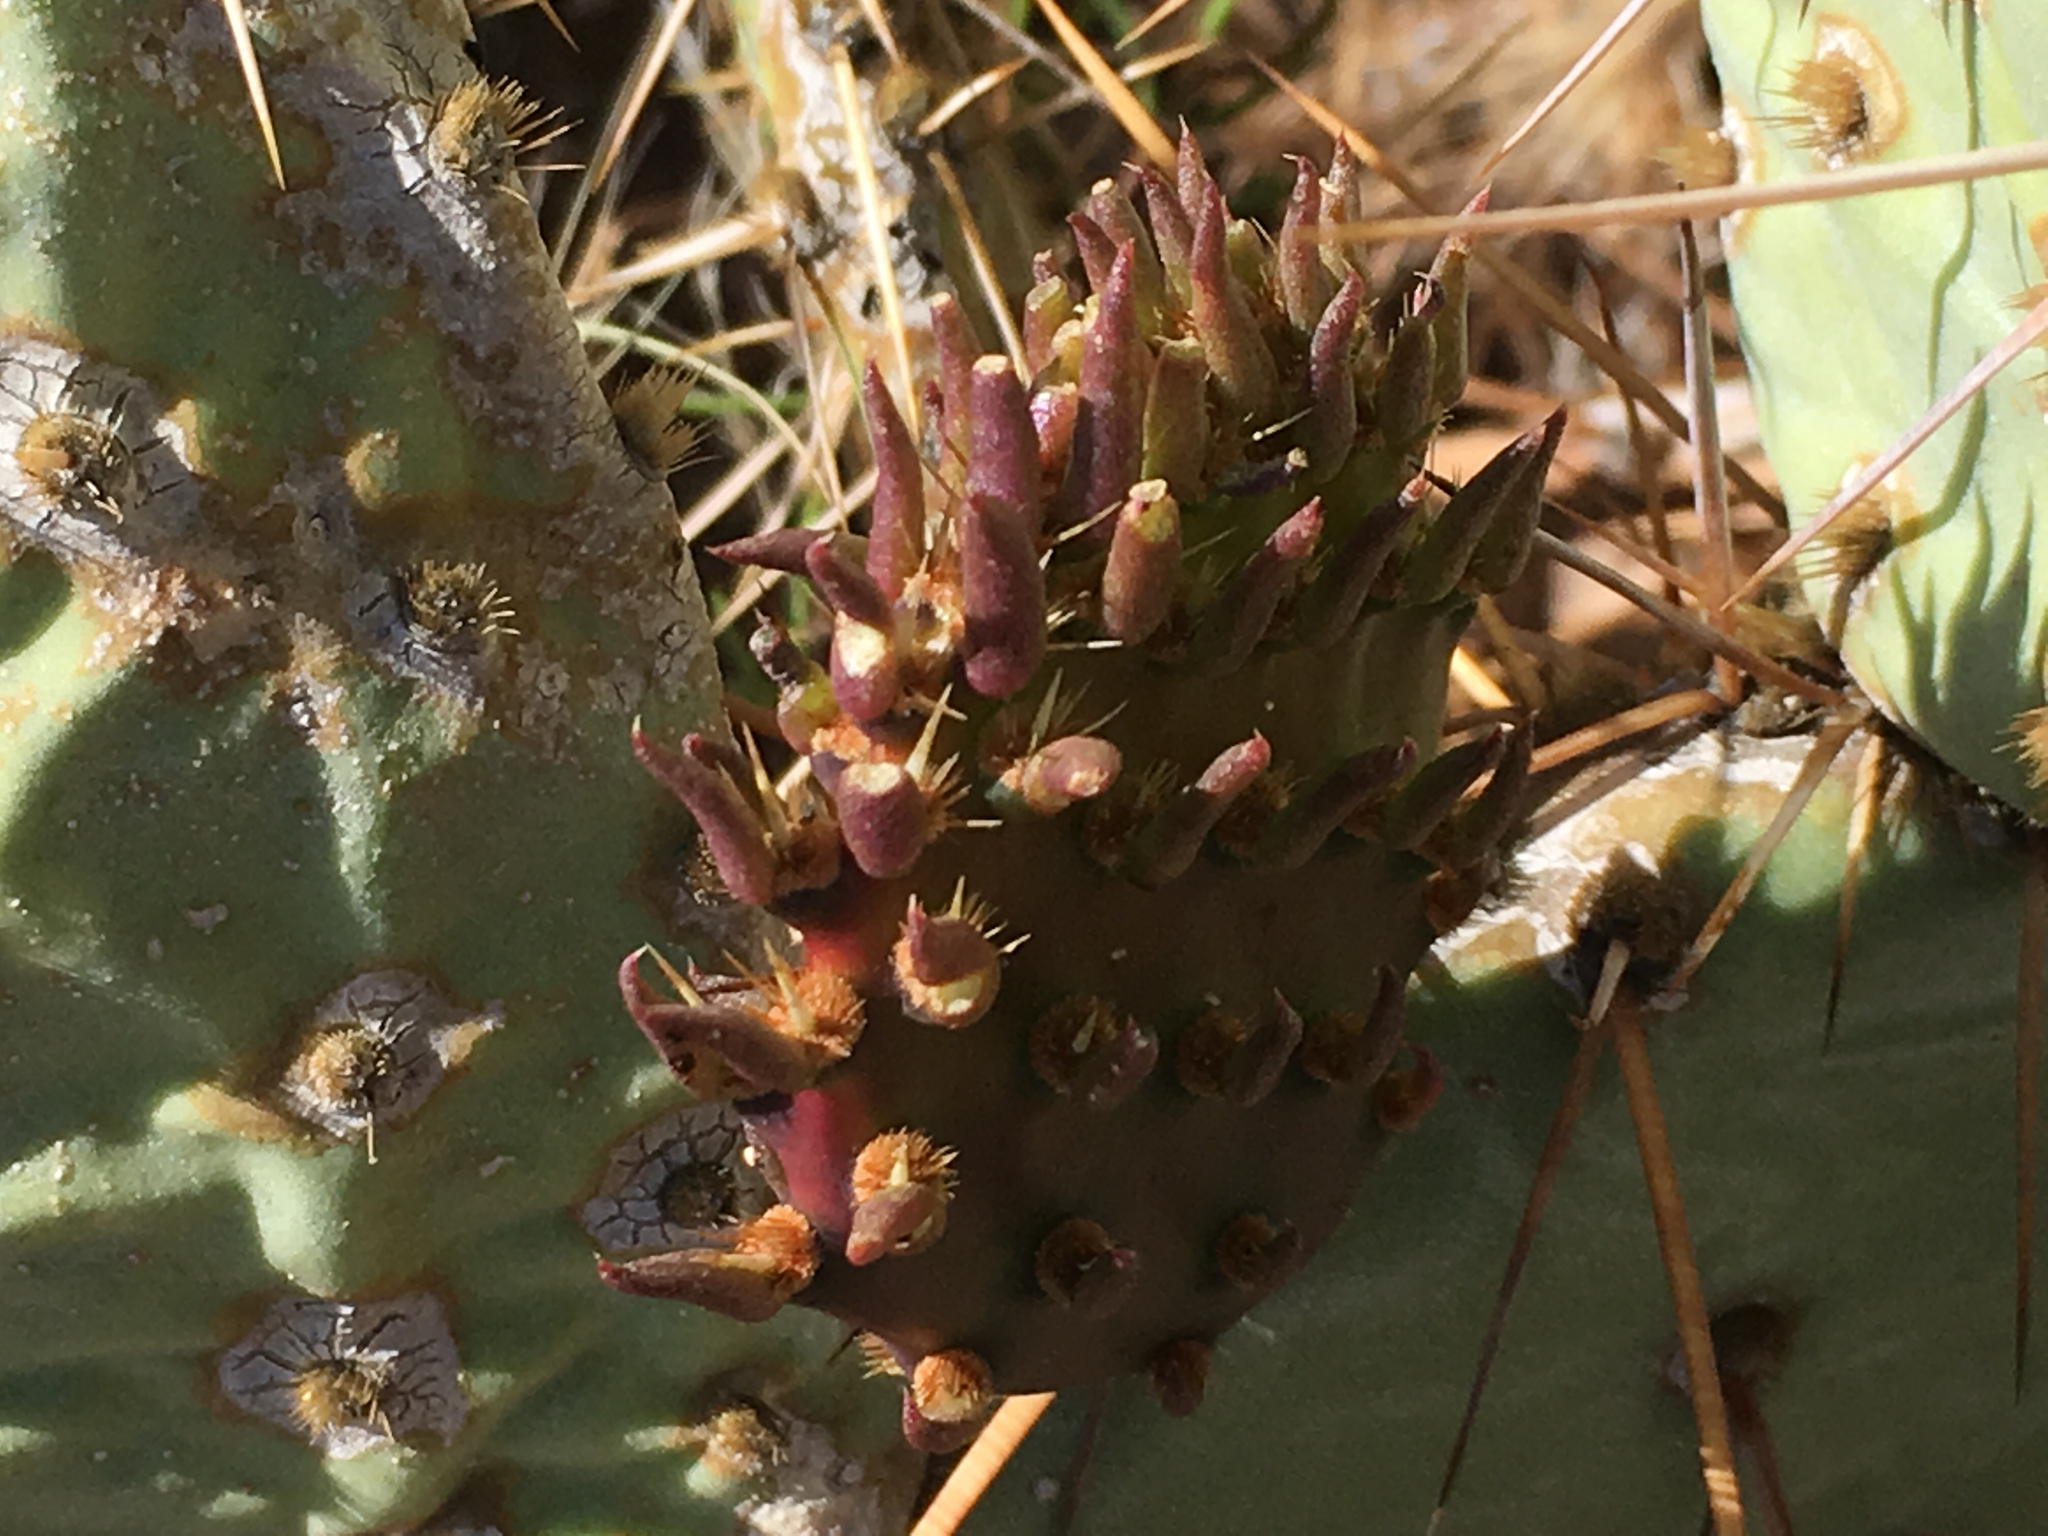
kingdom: Plantae
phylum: Tracheophyta
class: Magnoliopsida
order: Caryophyllales
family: Cactaceae
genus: Opuntia
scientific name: Opuntia phaeacantha
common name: New mexico prickly-pear
